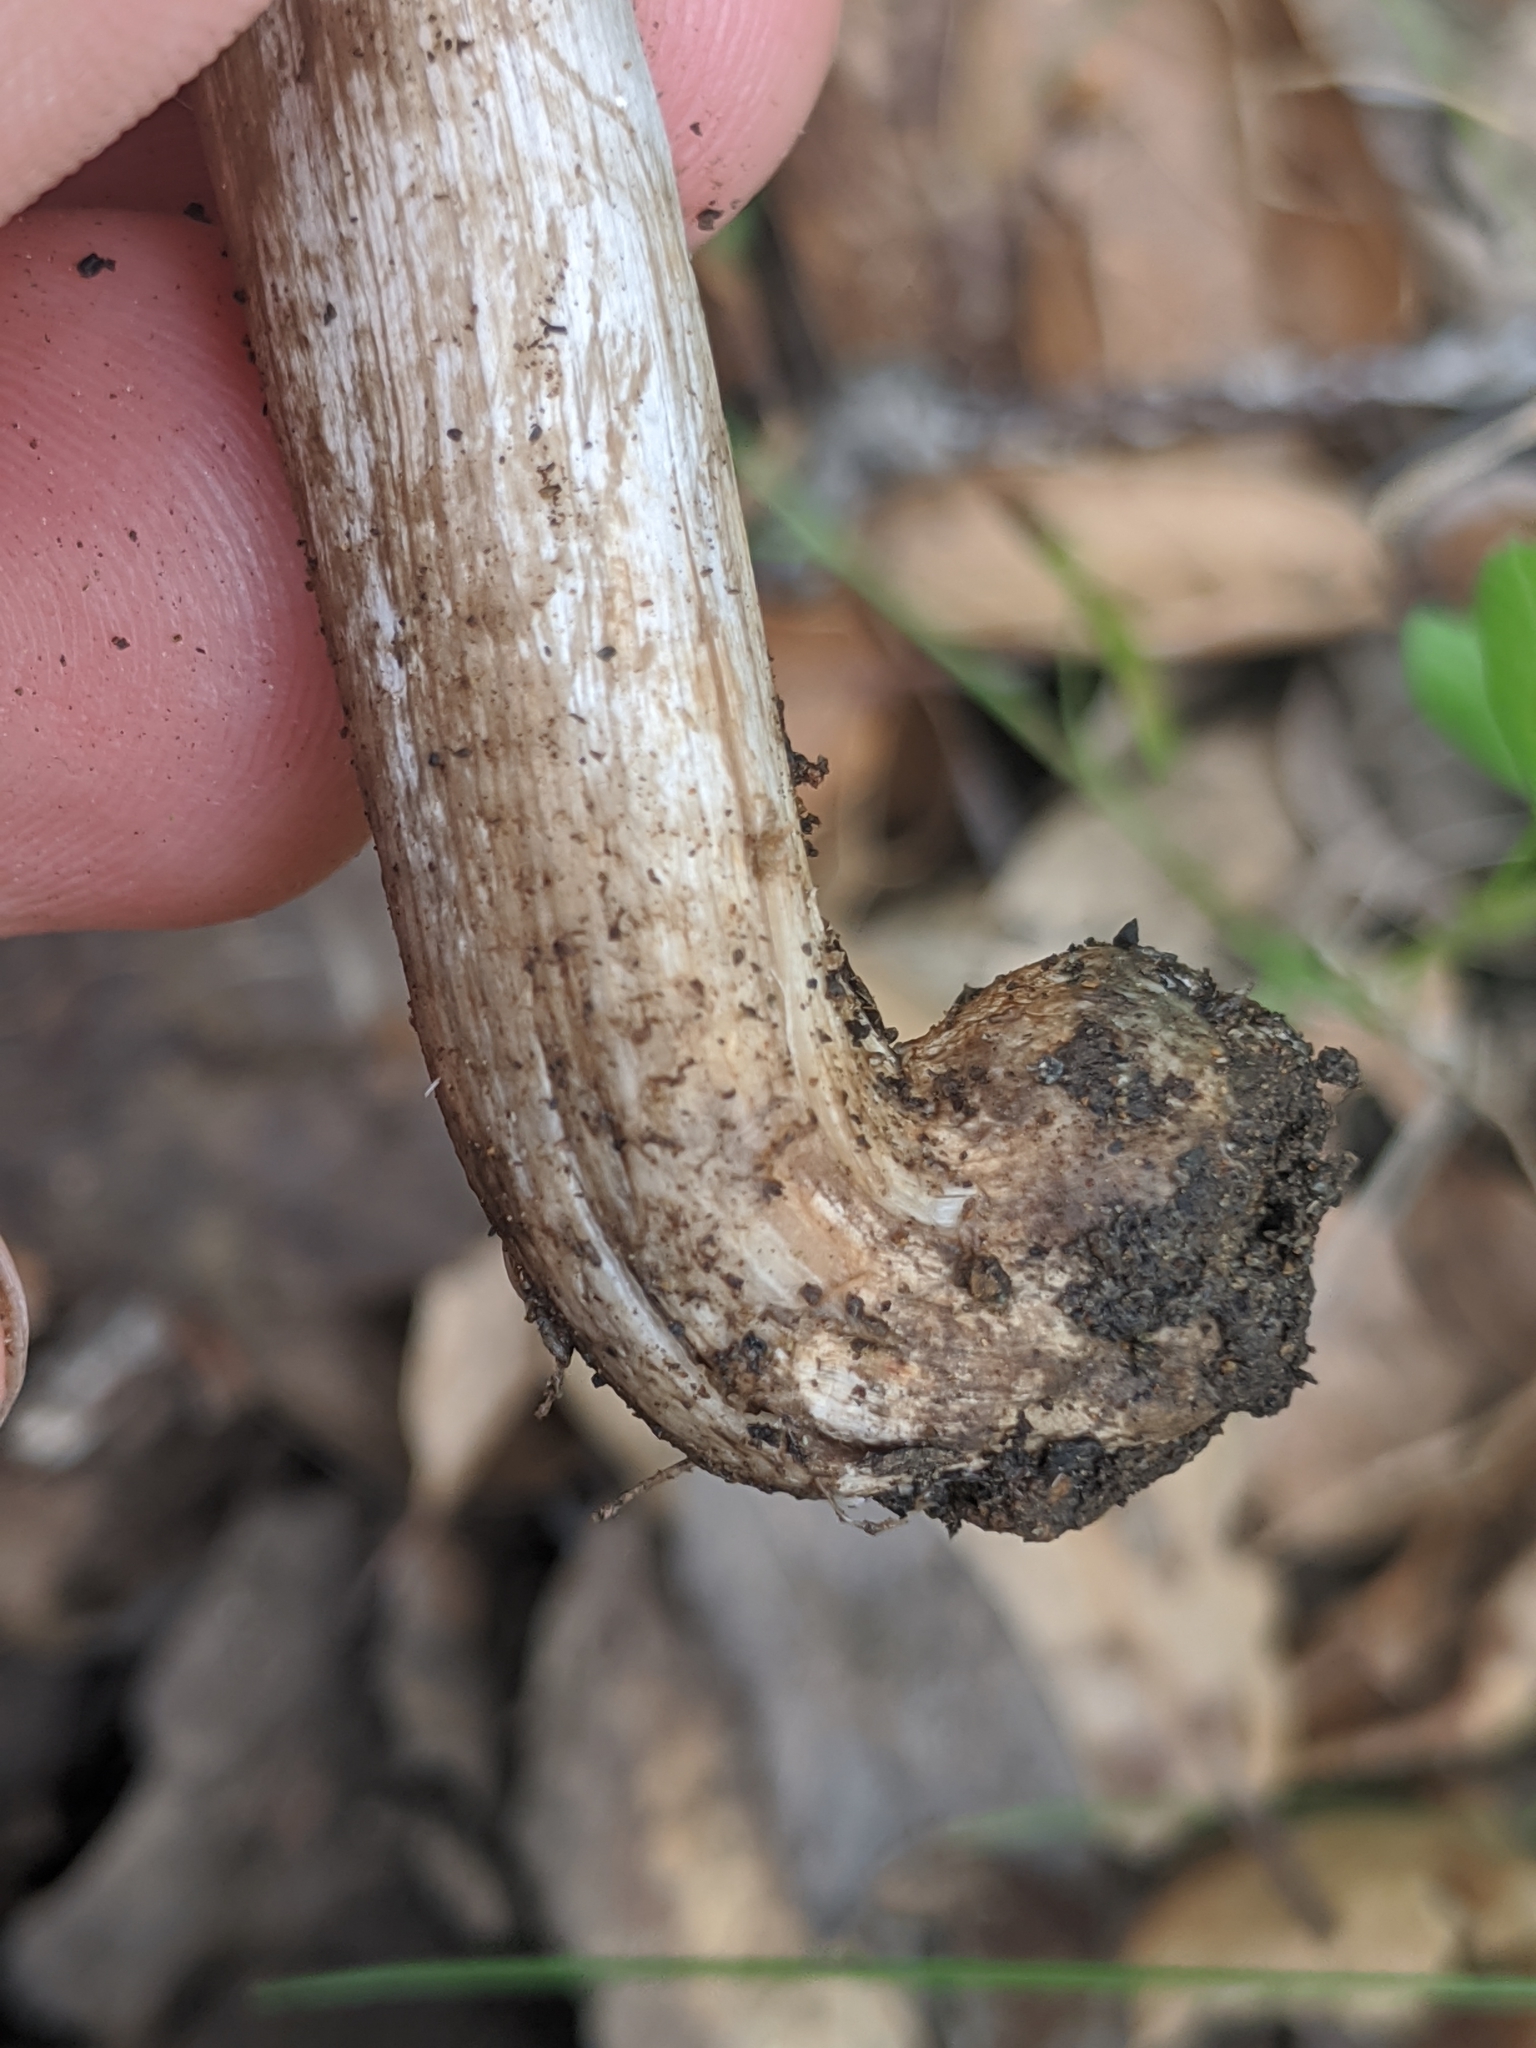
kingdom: Fungi
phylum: Basidiomycota
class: Agaricomycetes
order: Agaricales
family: Inocybaceae
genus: Inocybe
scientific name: Inocybe corydalina
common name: Greenflush fibrecap
